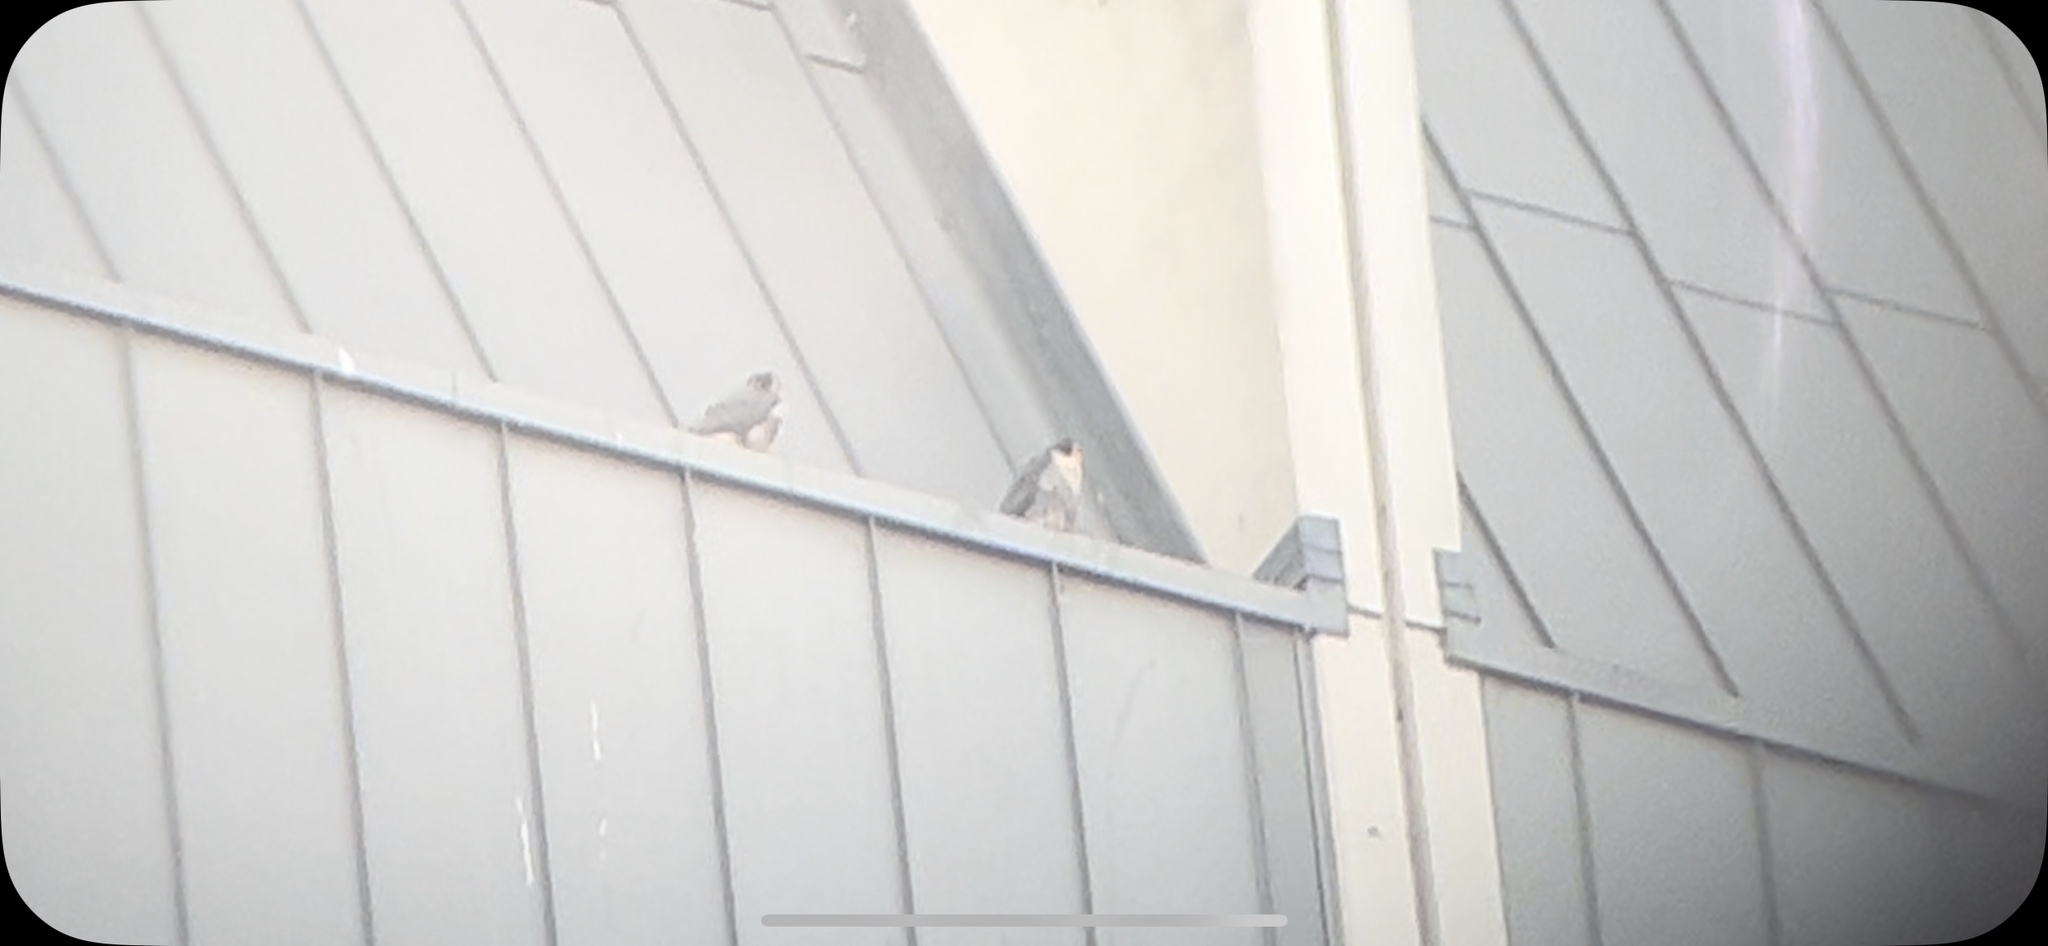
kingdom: Animalia
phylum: Chordata
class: Aves
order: Falconiformes
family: Falconidae
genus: Falco
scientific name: Falco peregrinus
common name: Peregrine falcon
